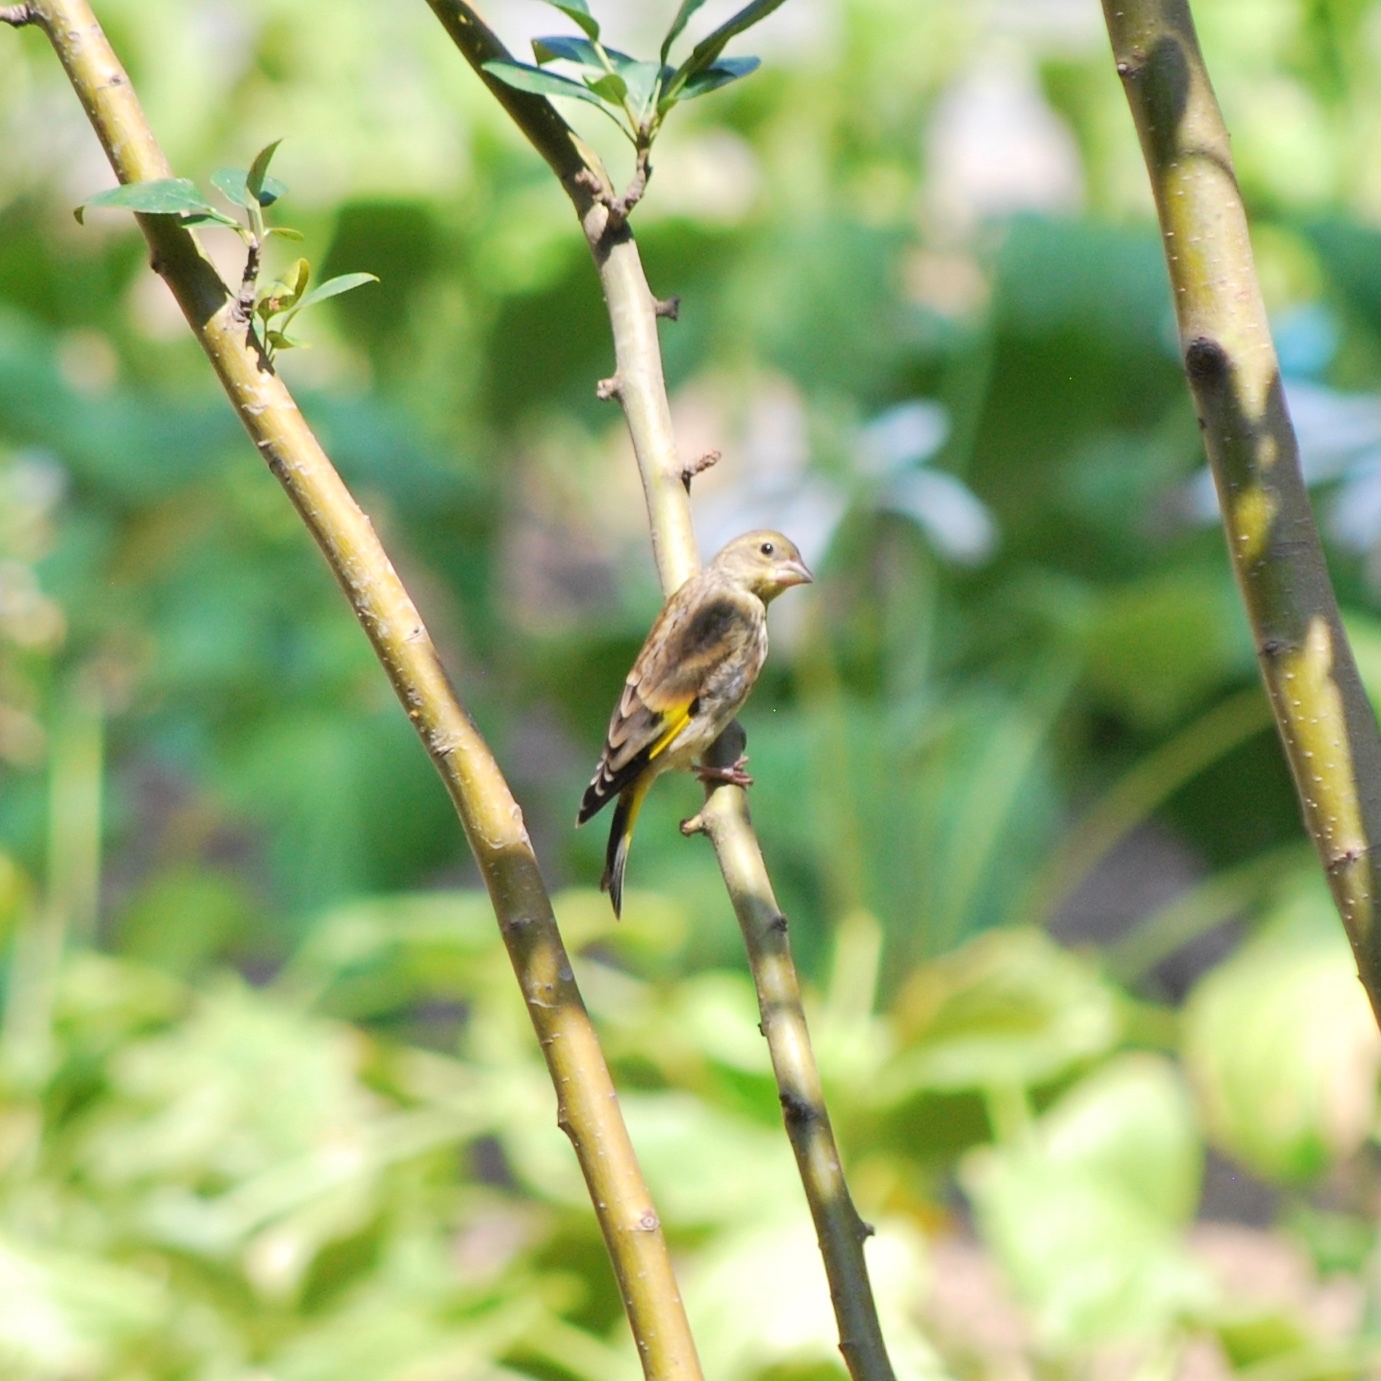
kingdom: Plantae
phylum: Tracheophyta
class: Liliopsida
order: Poales
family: Poaceae
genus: Chloris
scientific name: Chloris sinica
